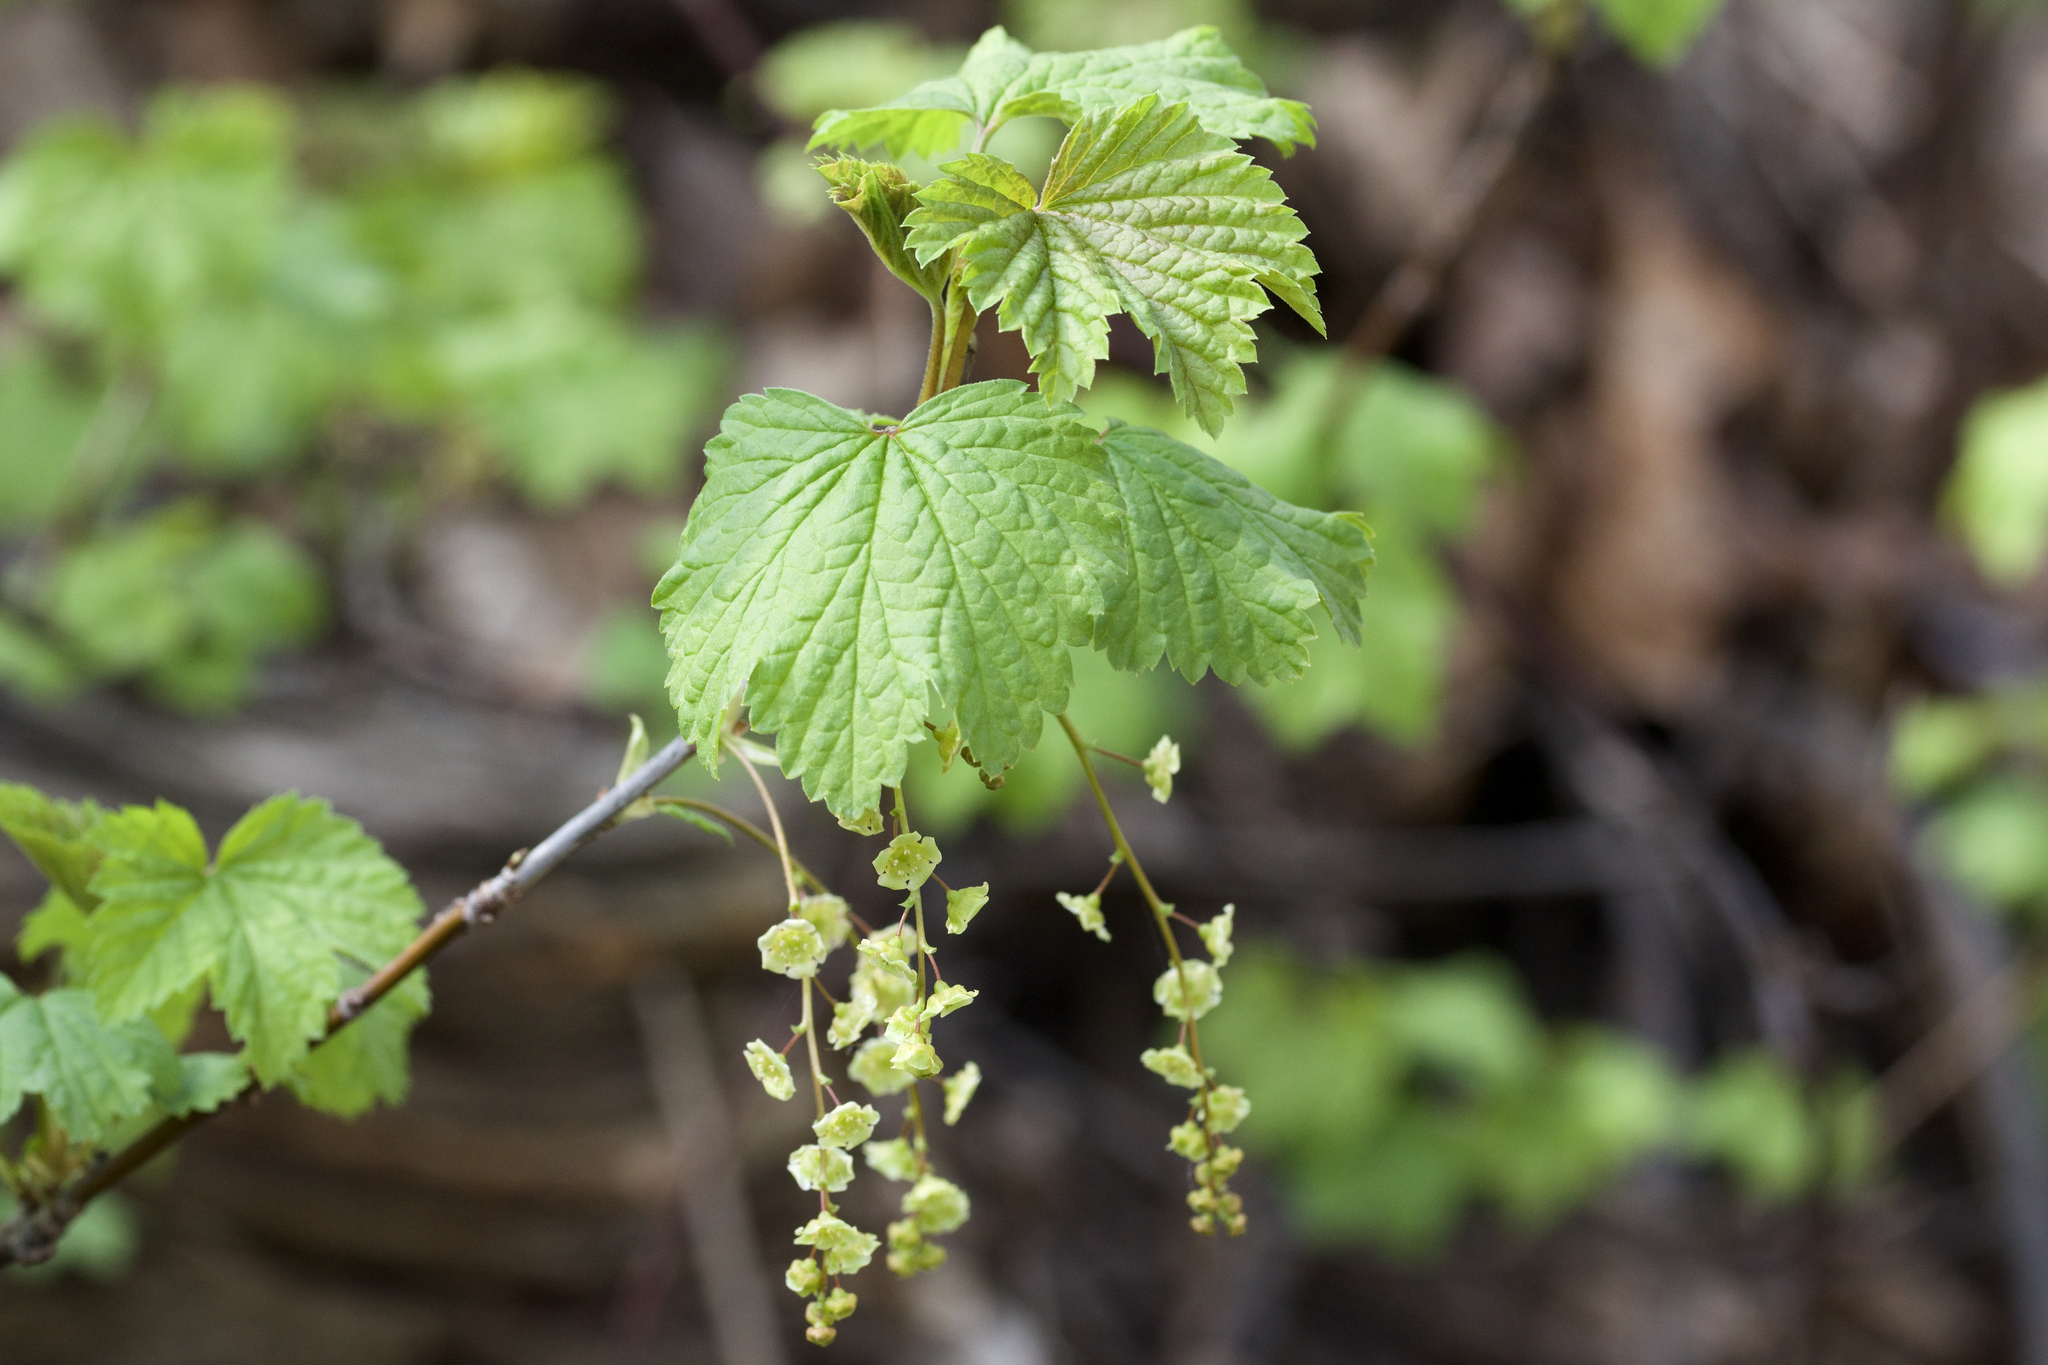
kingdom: Plantae
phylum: Tracheophyta
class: Magnoliopsida
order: Saxifragales
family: Grossulariaceae
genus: Ribes
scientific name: Ribes rubrum
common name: Red currant
